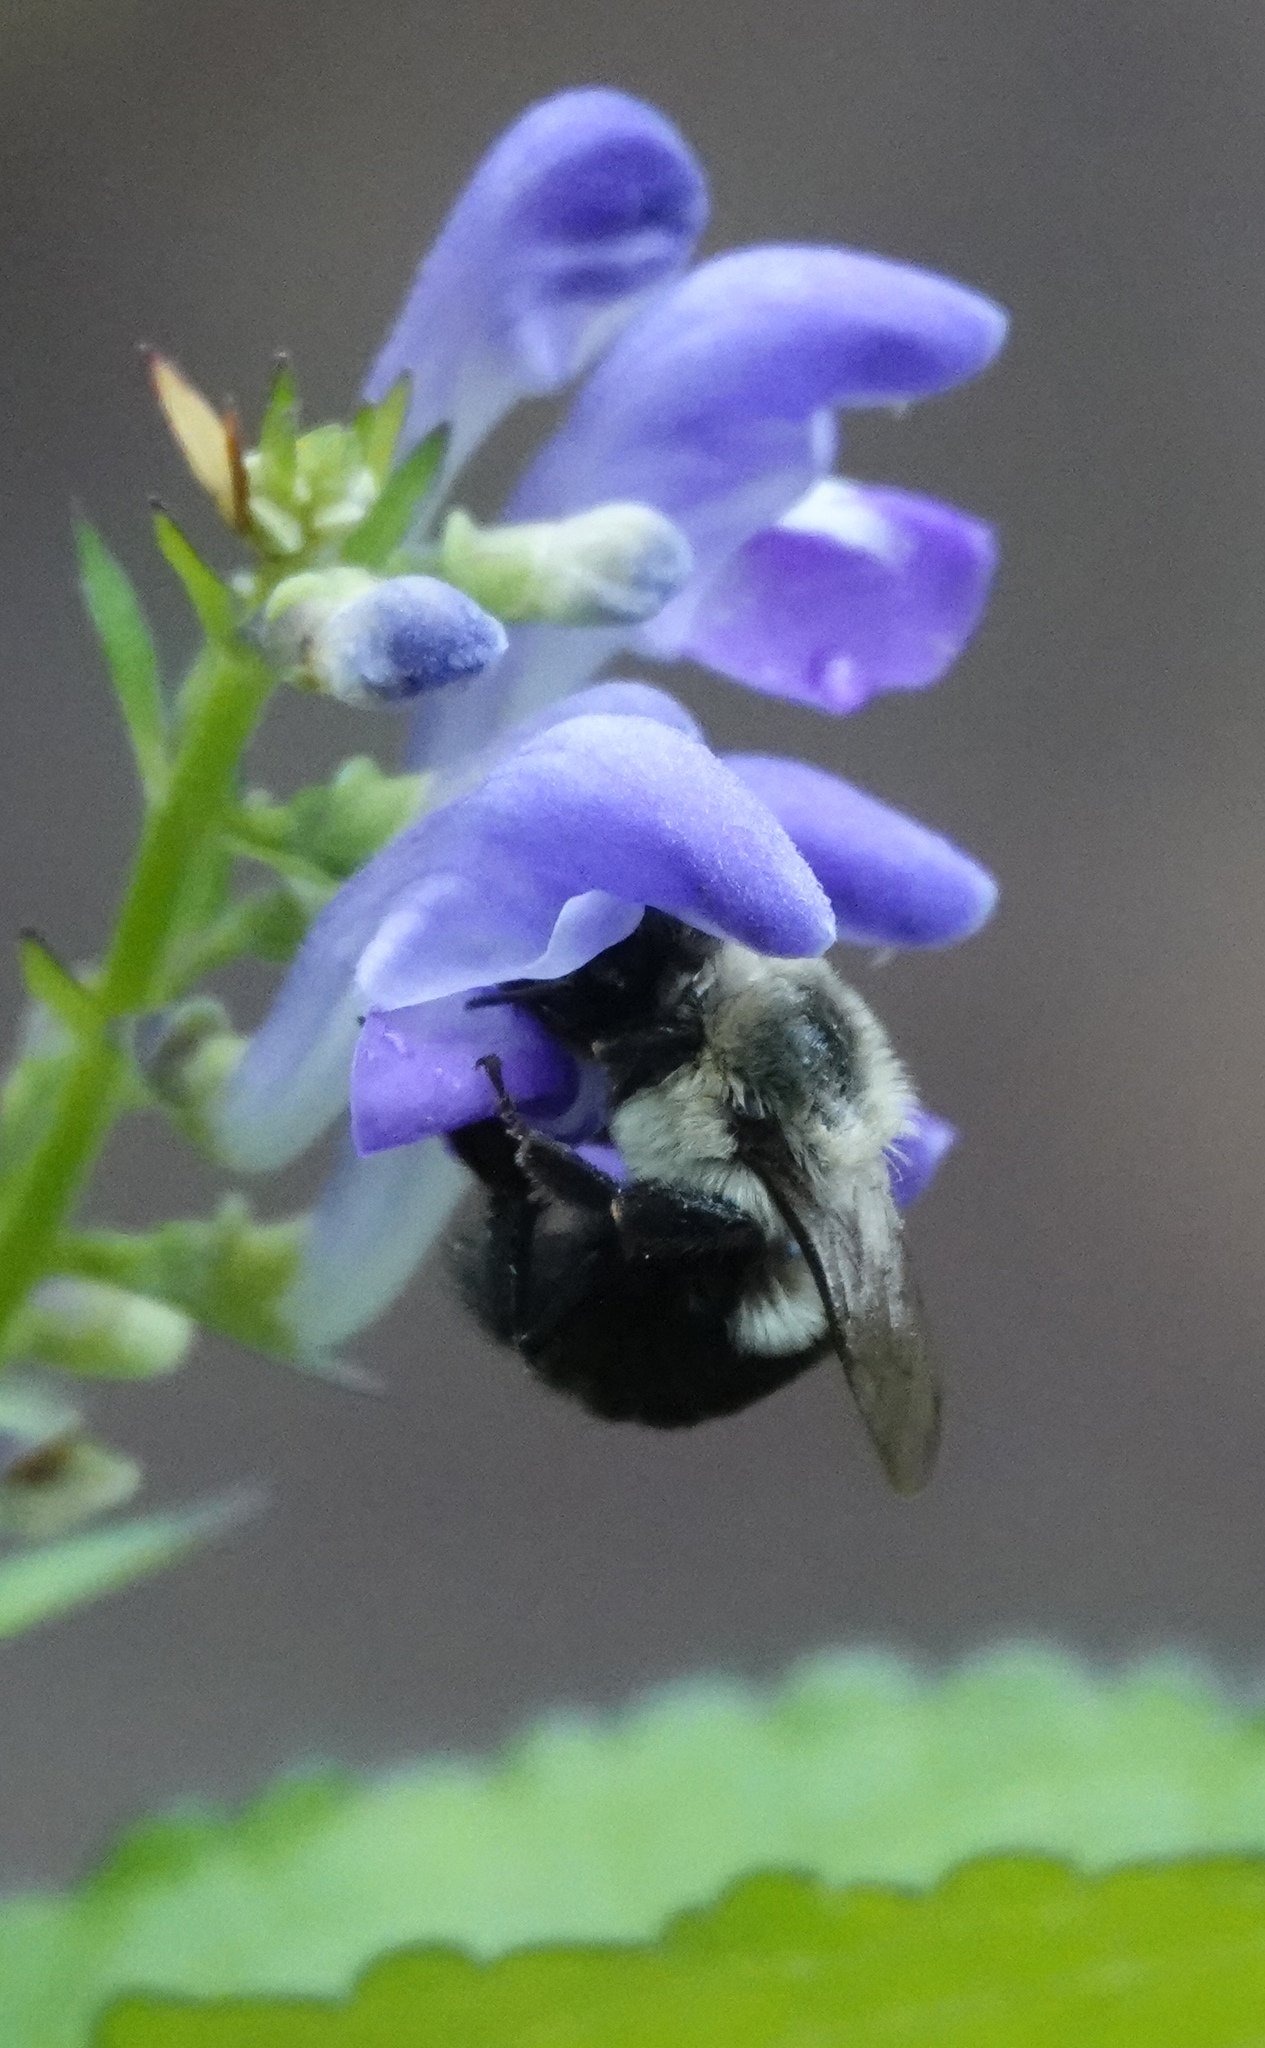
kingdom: Animalia
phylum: Arthropoda
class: Insecta
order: Hymenoptera
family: Apidae
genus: Bombus
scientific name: Bombus impatiens
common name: Common eastern bumble bee
